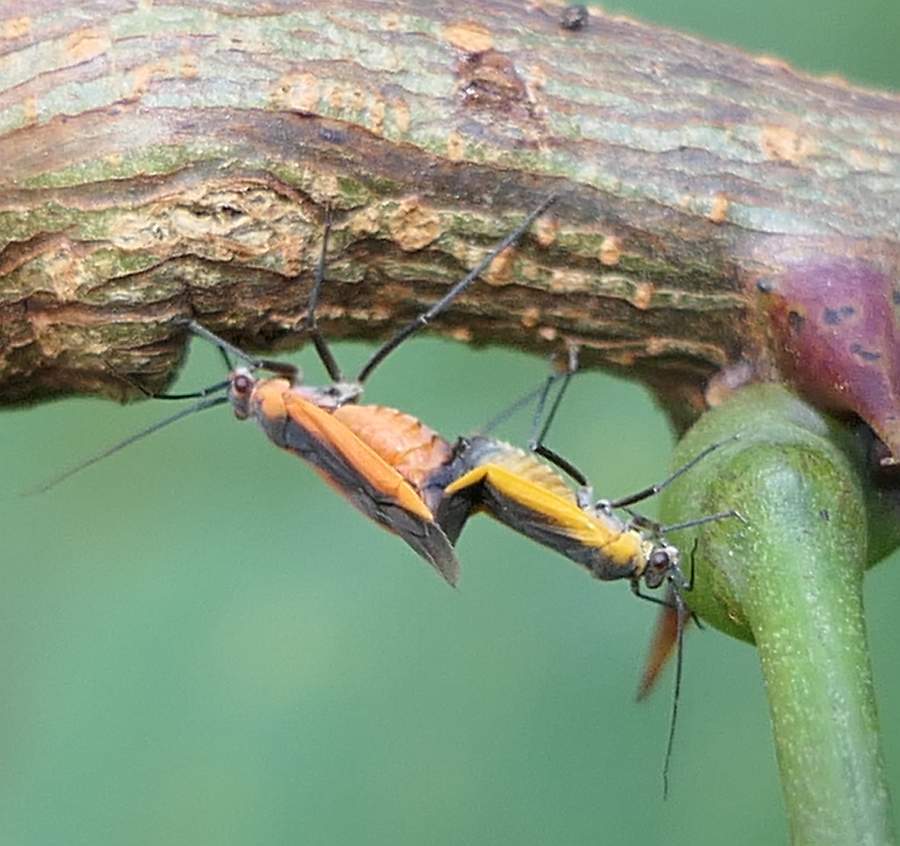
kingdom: Animalia
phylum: Arthropoda
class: Insecta
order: Hemiptera
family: Miridae
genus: Lopidea
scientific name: Lopidea robiniae
